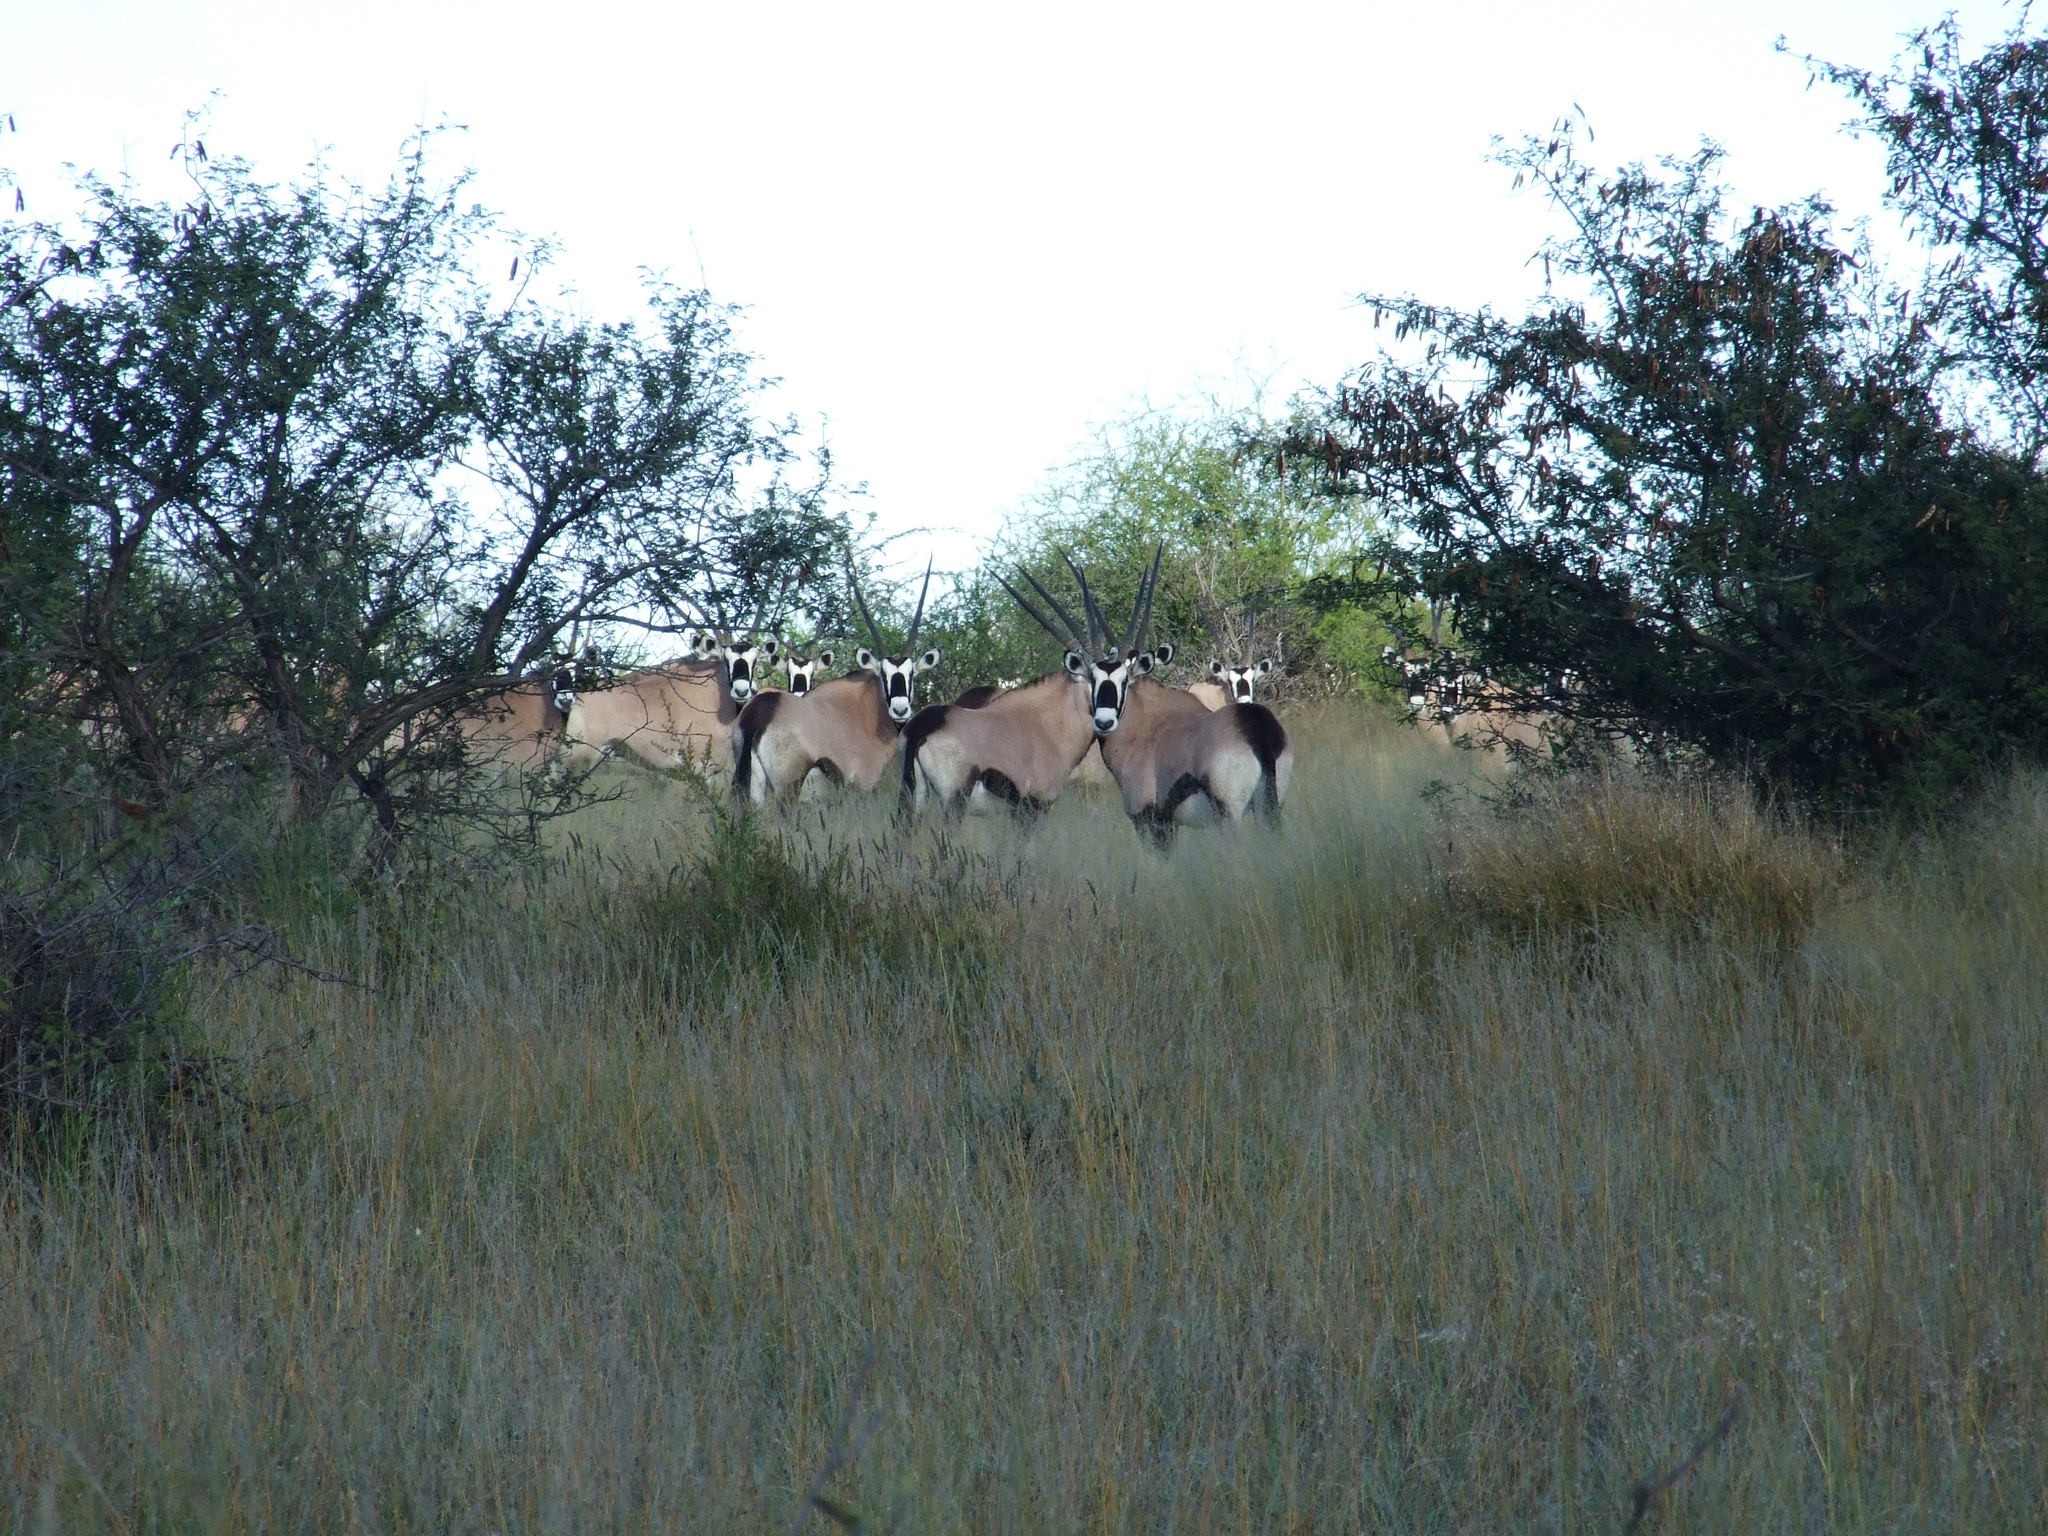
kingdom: Animalia
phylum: Chordata
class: Mammalia
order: Artiodactyla
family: Bovidae
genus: Oryx
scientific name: Oryx gazella
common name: Gemsbok
